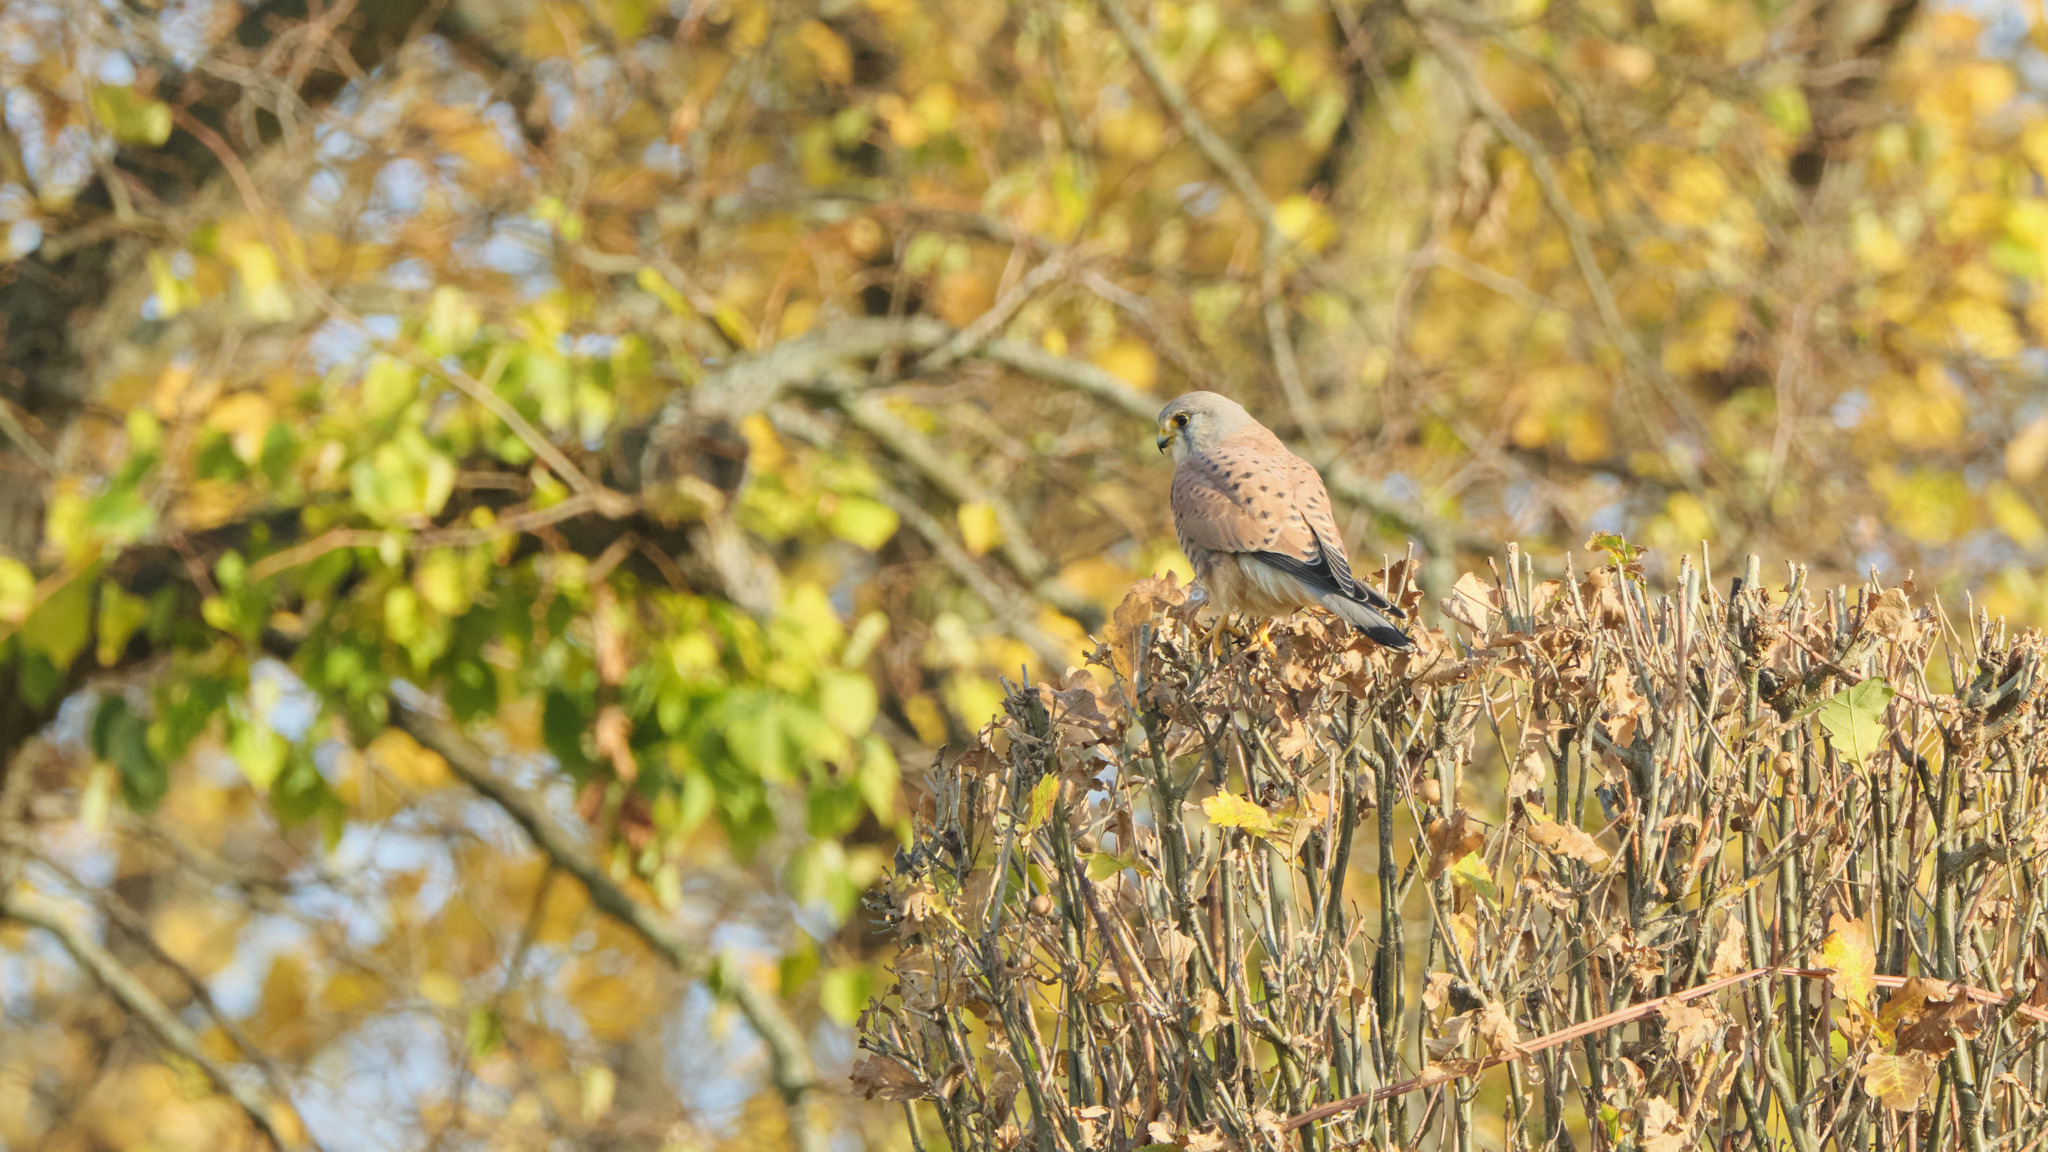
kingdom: Animalia
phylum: Chordata
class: Aves
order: Falconiformes
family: Falconidae
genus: Falco
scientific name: Falco tinnunculus
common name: Common kestrel
